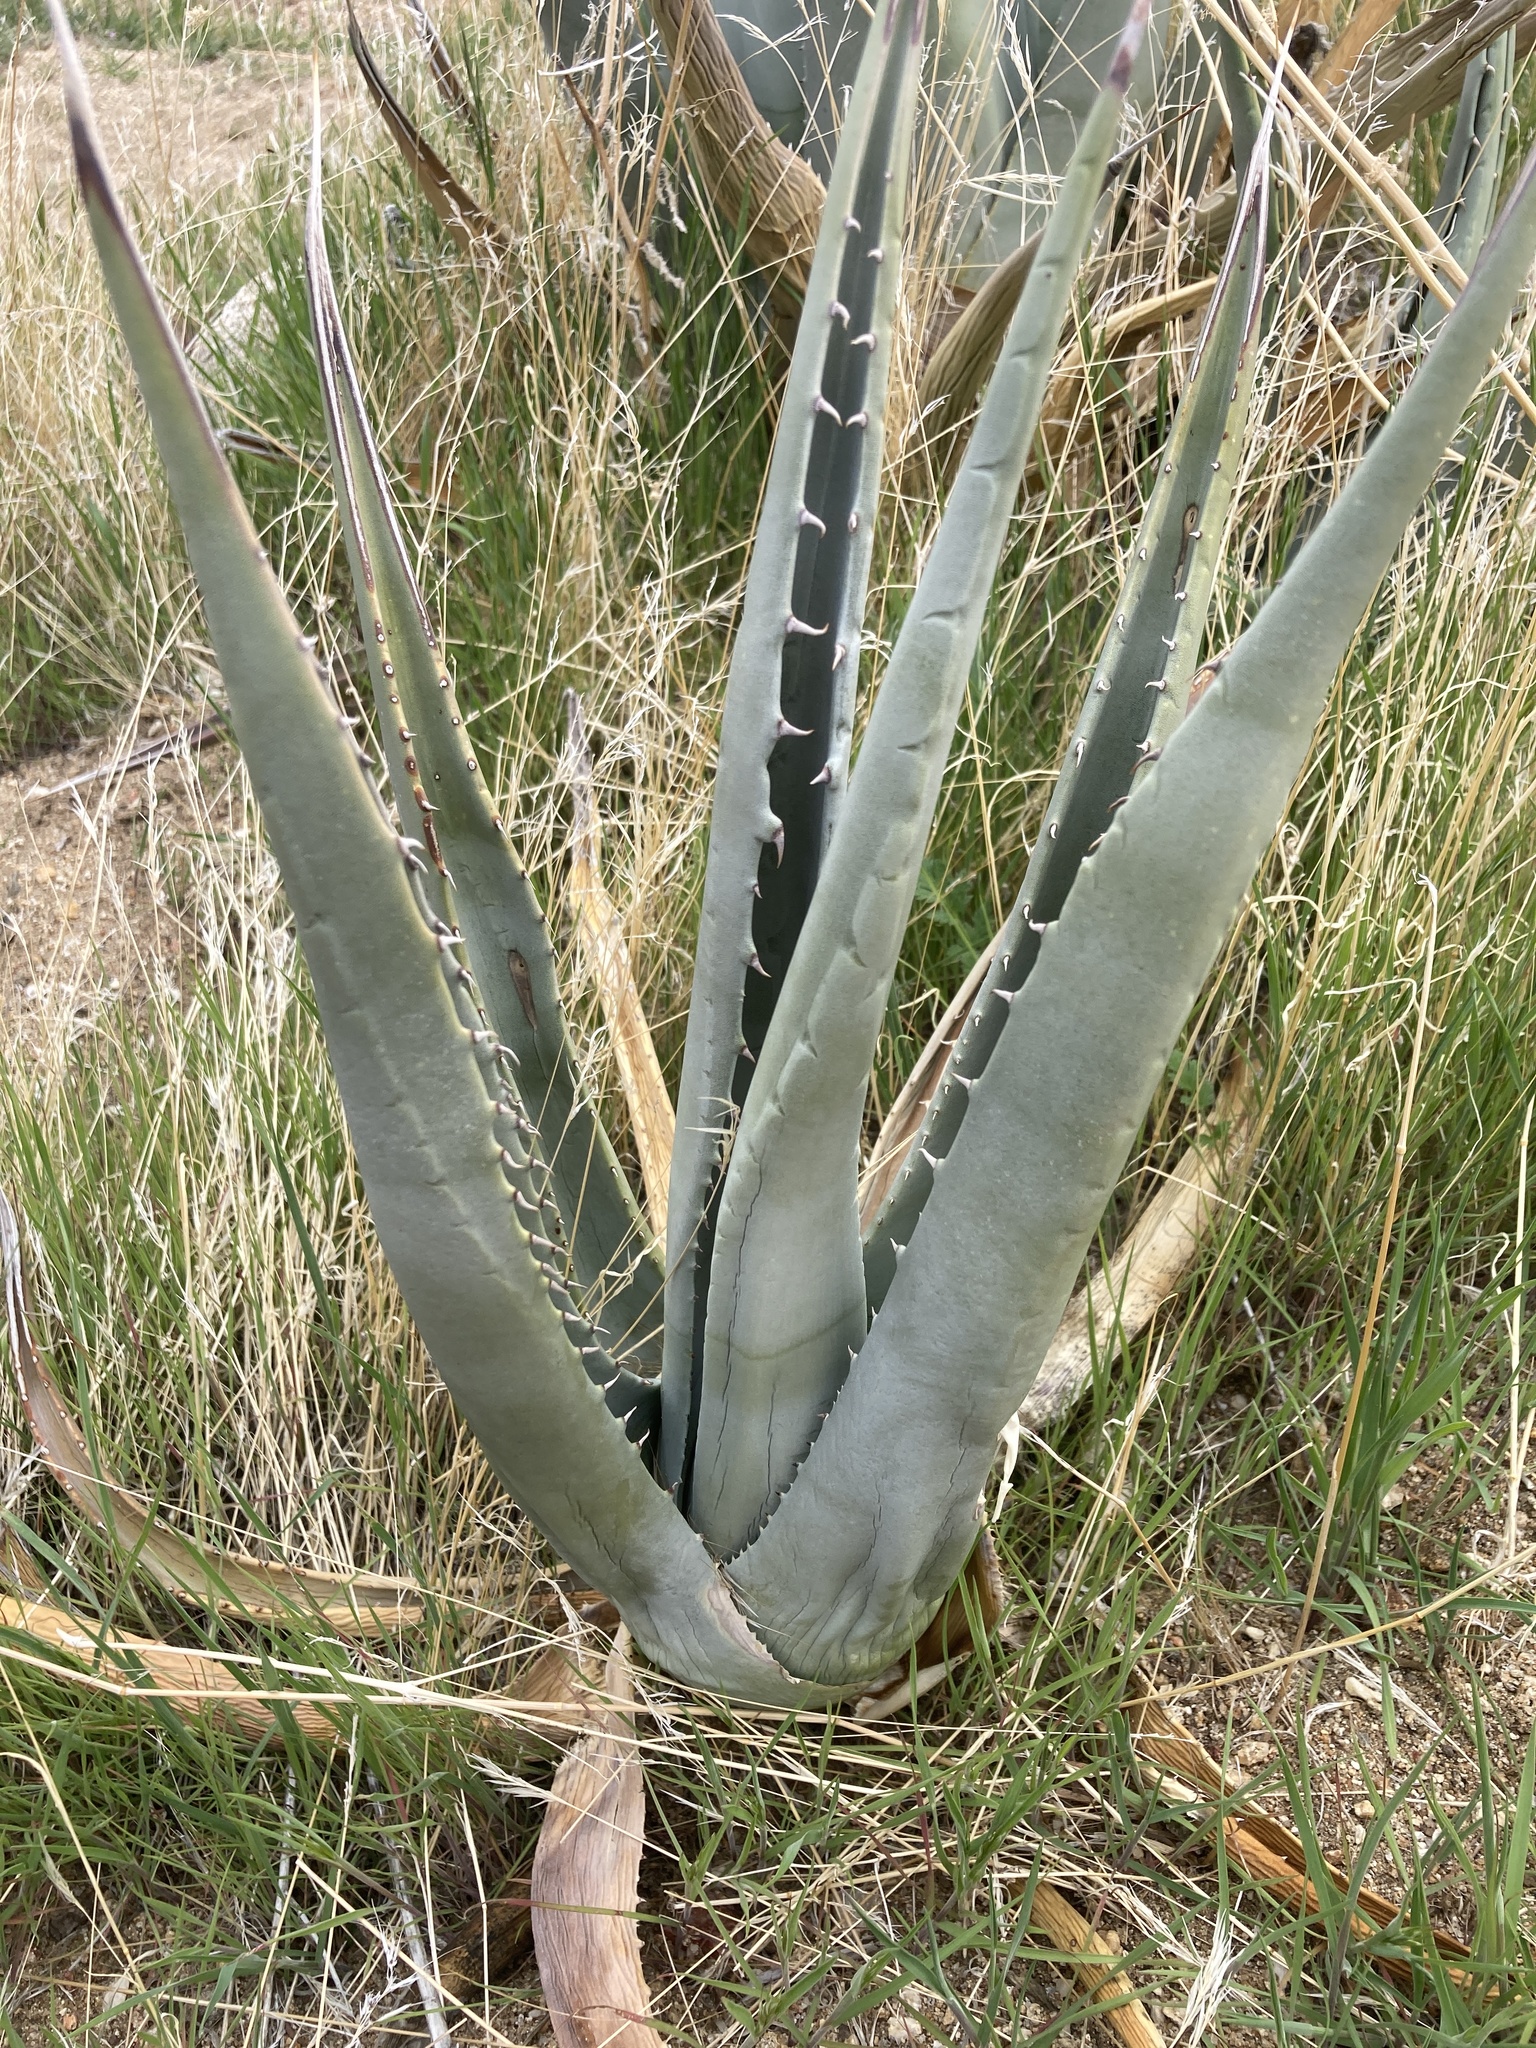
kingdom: Plantae
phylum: Tracheophyta
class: Liliopsida
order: Asparagales
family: Asparagaceae
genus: Agave
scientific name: Agave deserti
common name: Desert agave
